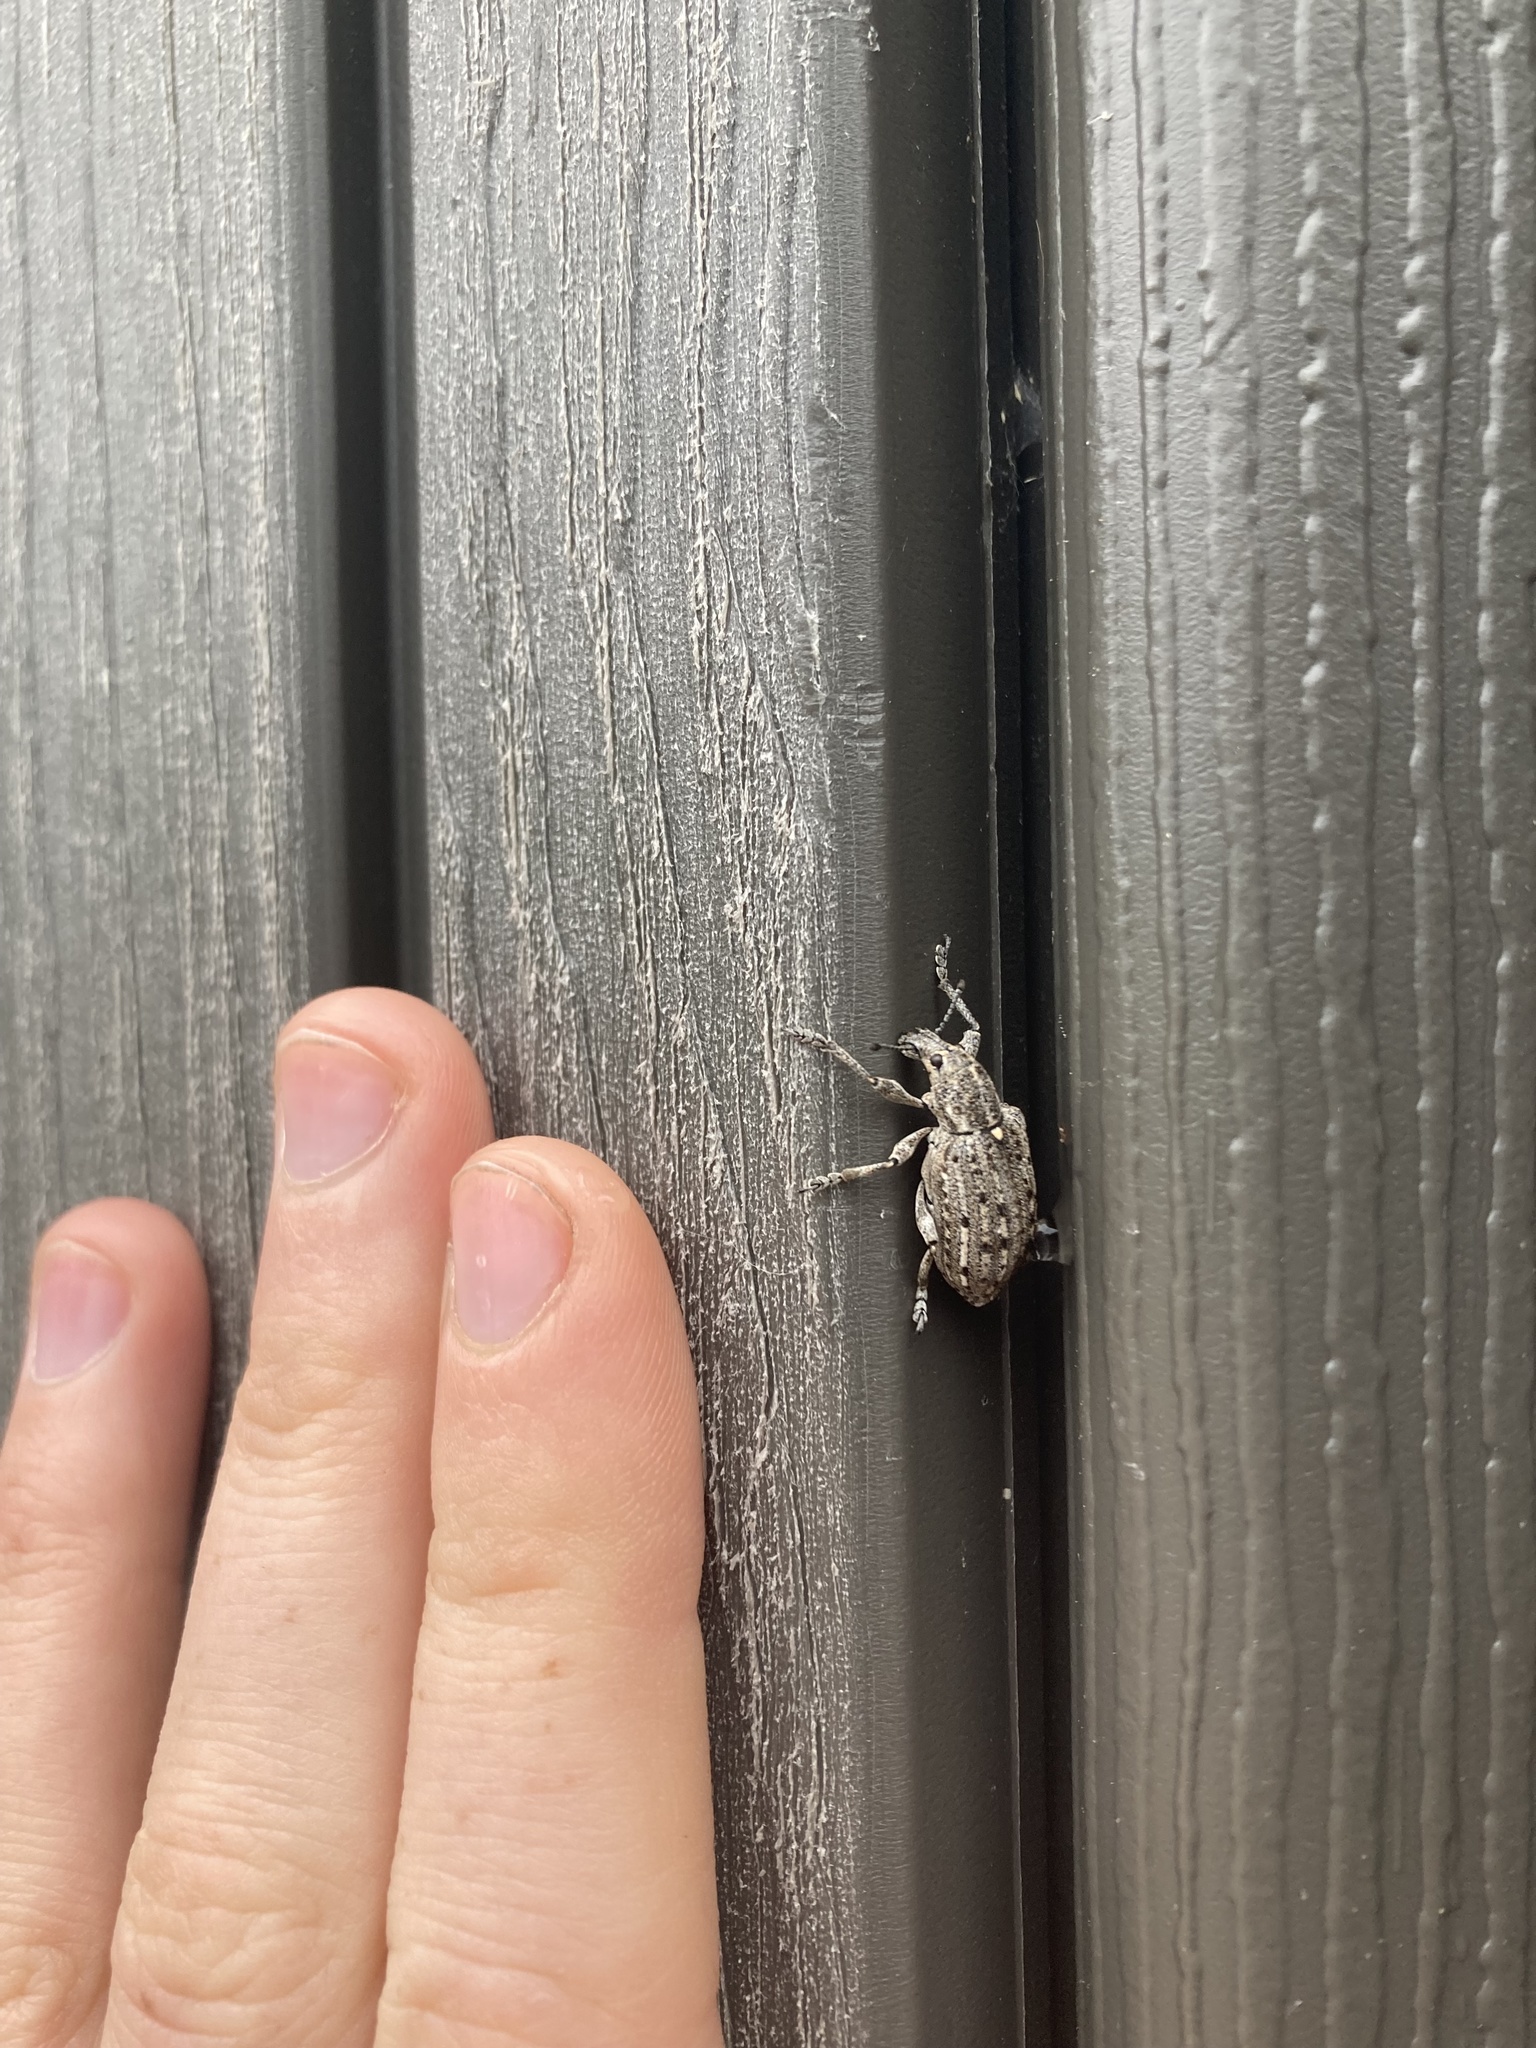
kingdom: Animalia
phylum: Arthropoda
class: Insecta
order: Coleoptera
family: Ithyceridae
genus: Ithycerus
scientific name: Ithycerus noveboracensis
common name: New york weevil
